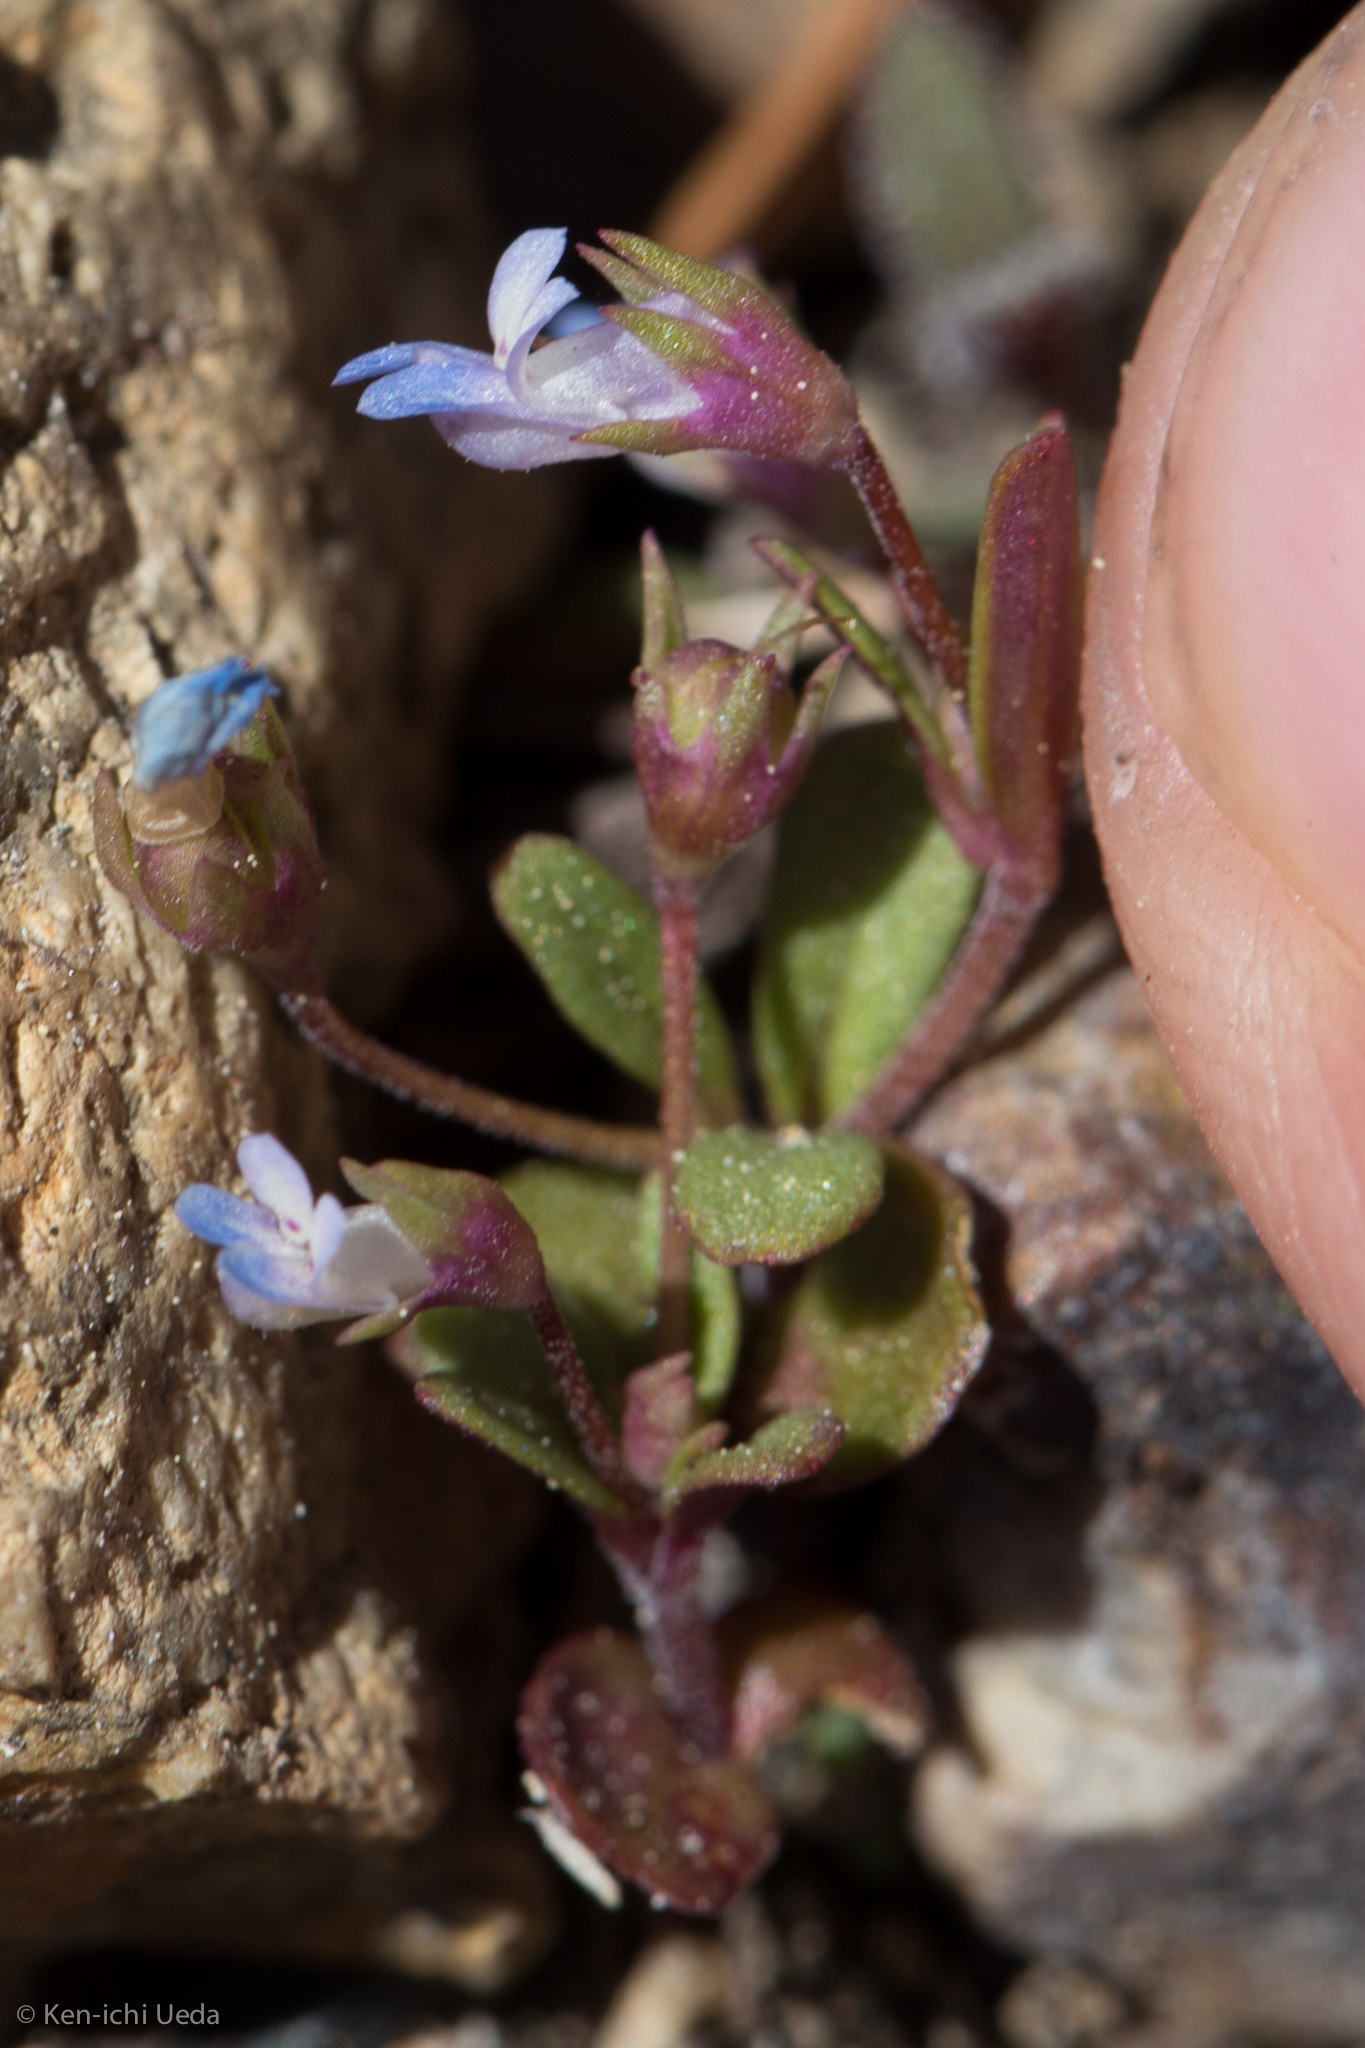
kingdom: Plantae
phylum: Tracheophyta
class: Magnoliopsida
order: Lamiales
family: Plantaginaceae
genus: Collinsia
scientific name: Collinsia parviflora
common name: Blue-lips
